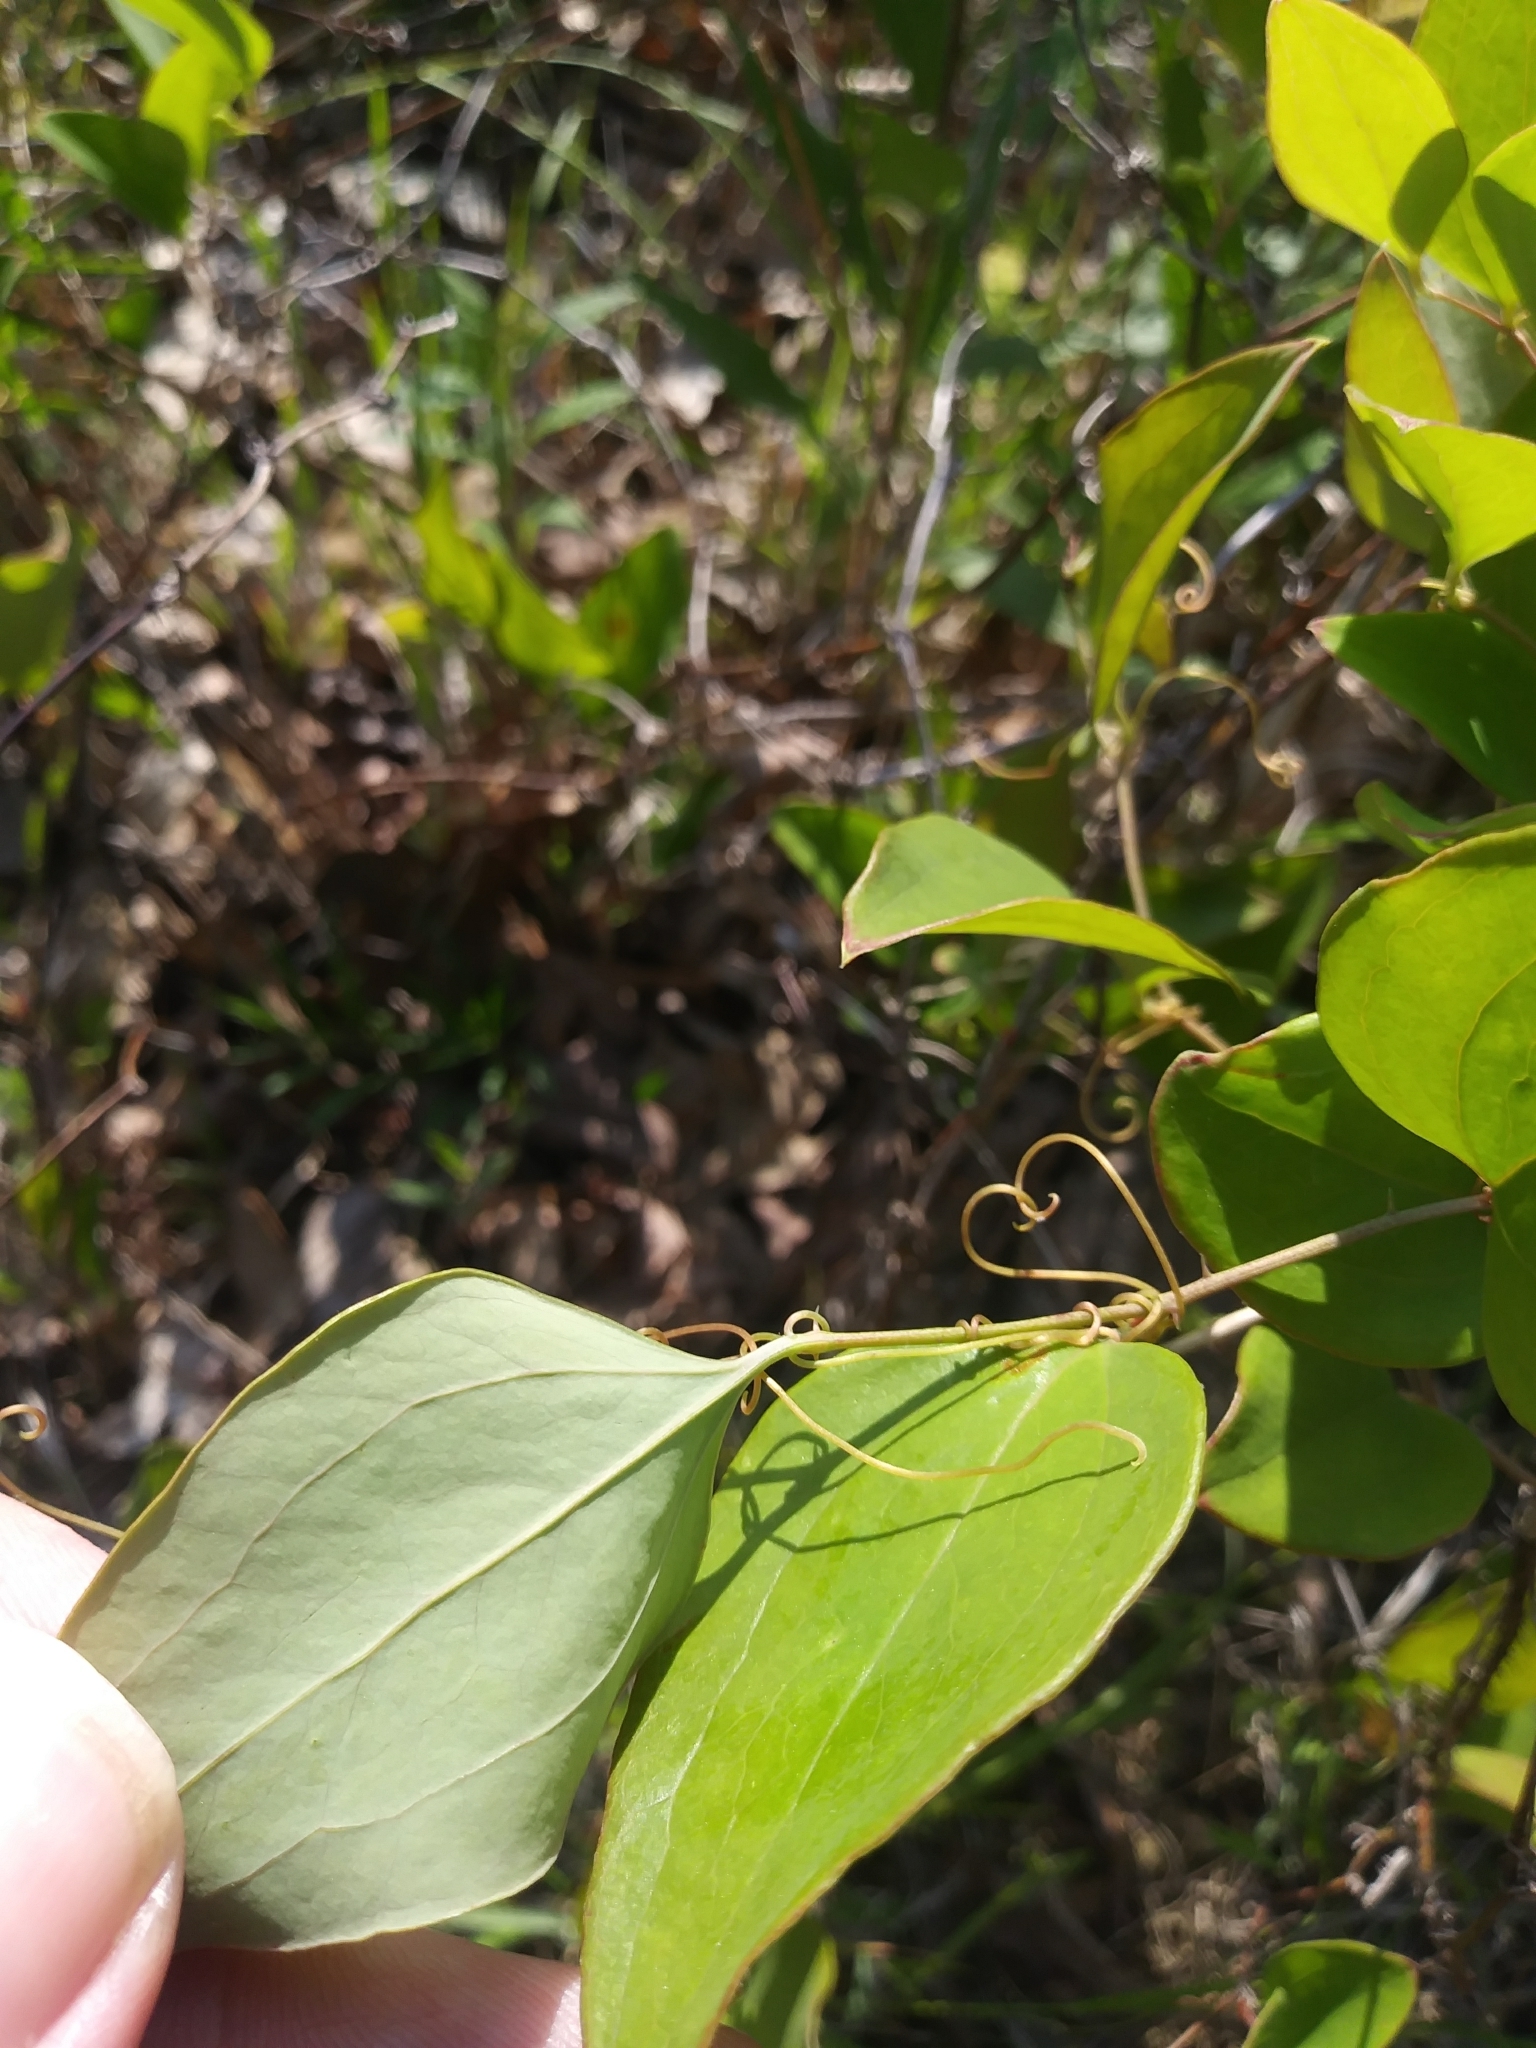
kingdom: Plantae
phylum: Tracheophyta
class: Liliopsida
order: Liliales
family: Smilacaceae
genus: Smilax
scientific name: Smilax glauca
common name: Cat greenbrier
